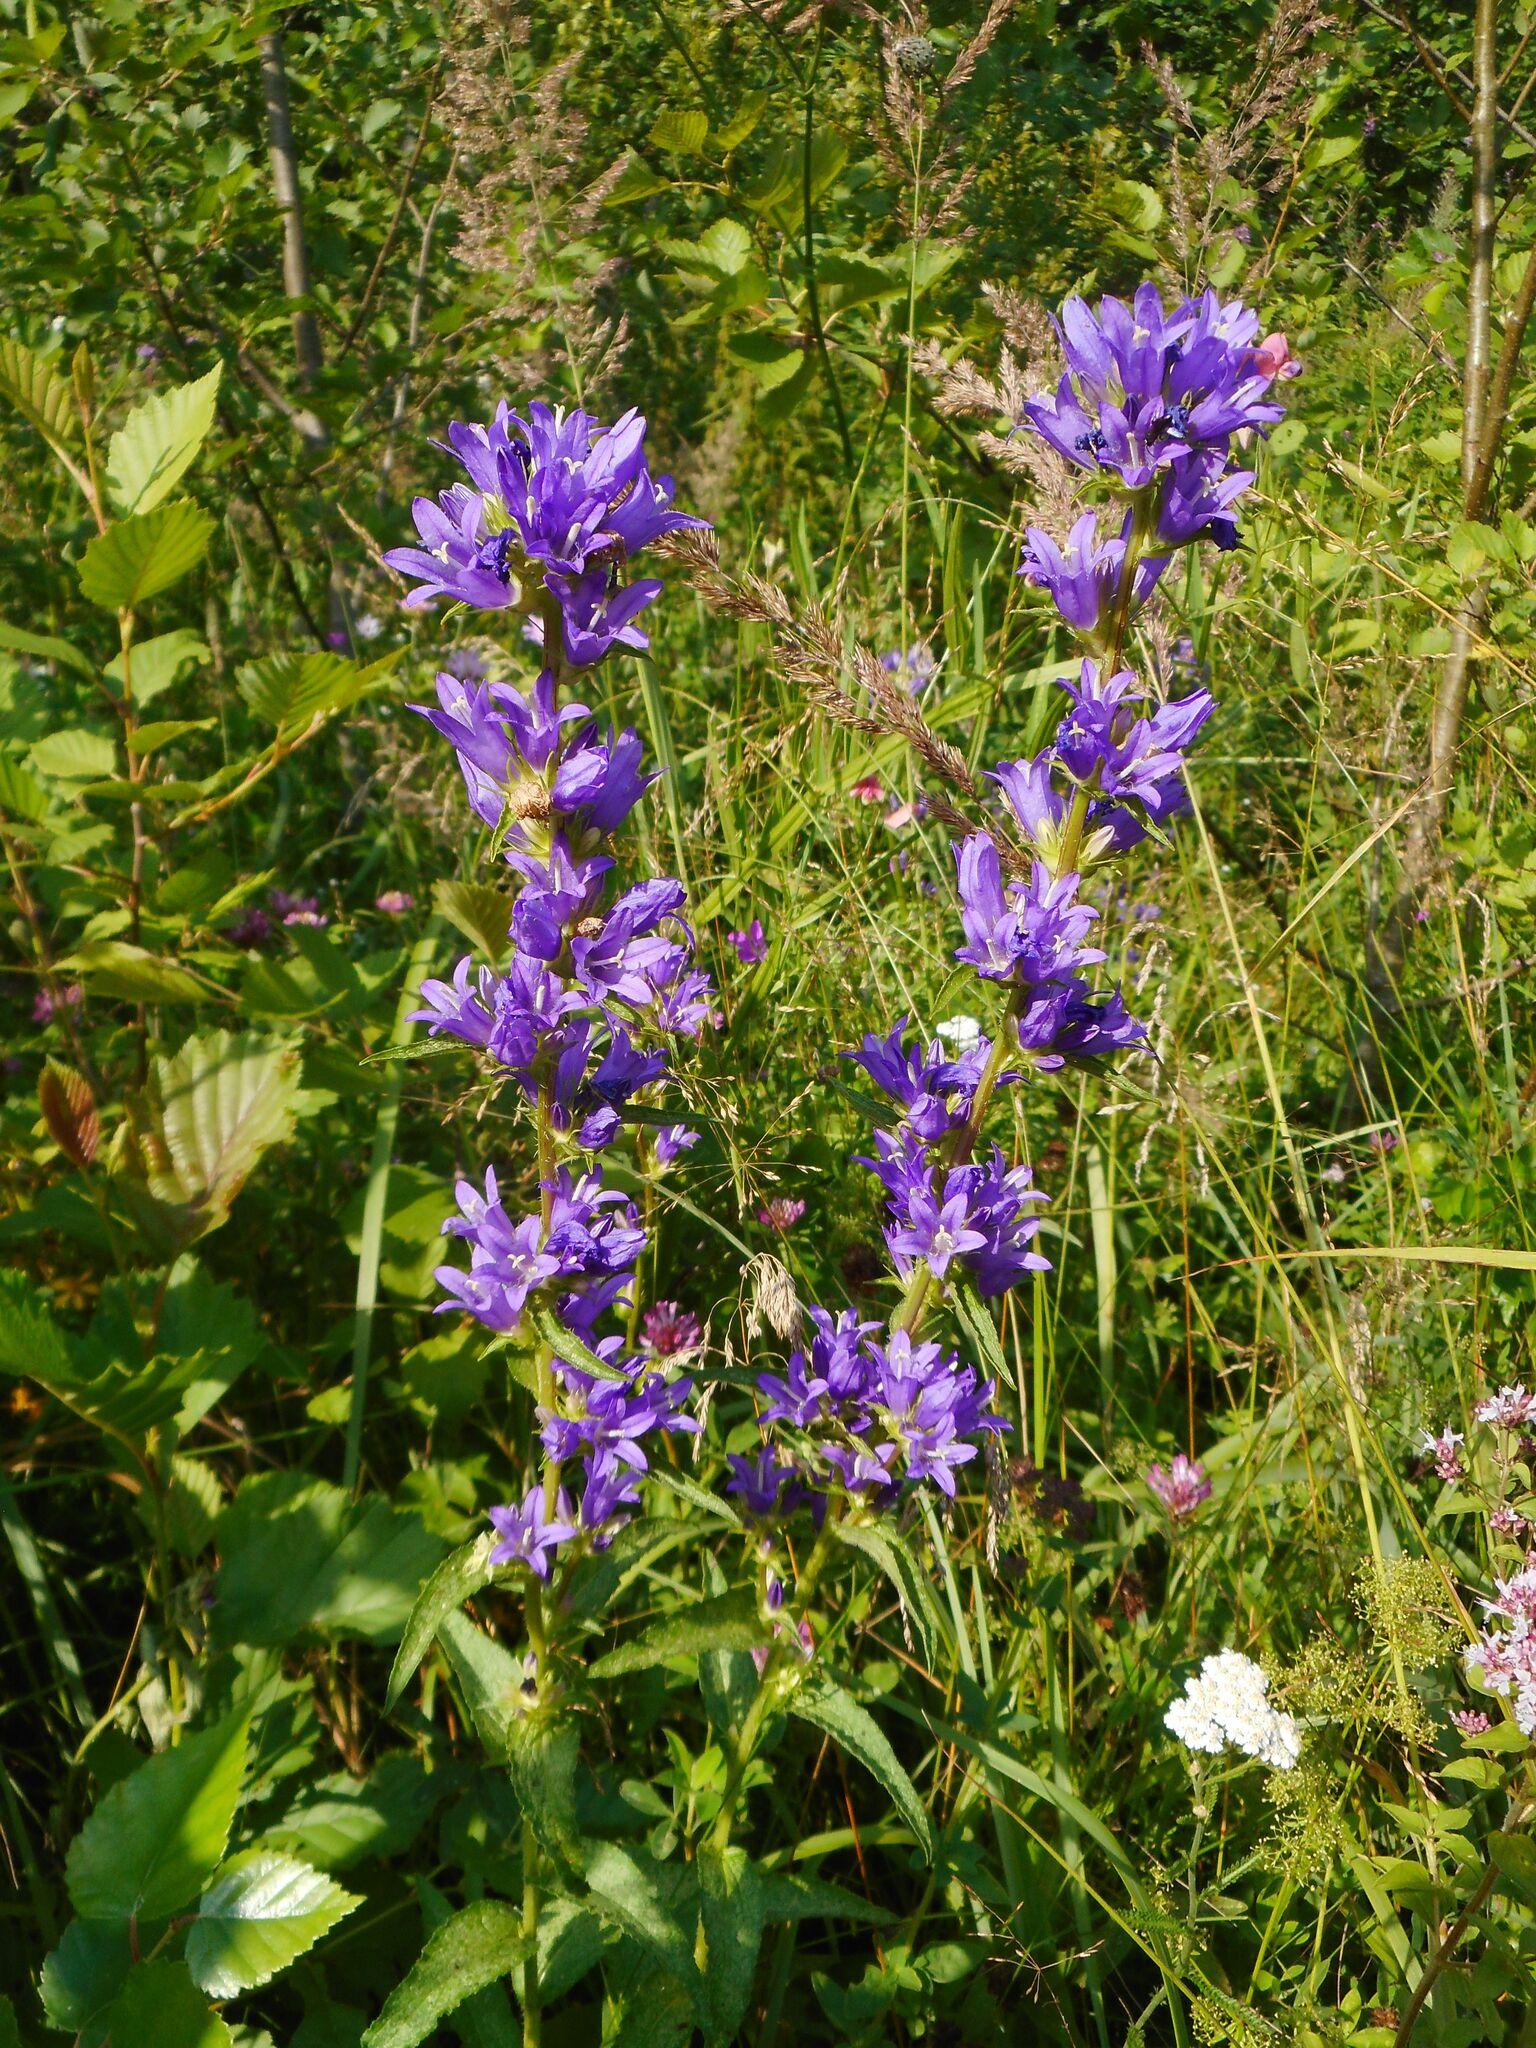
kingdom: Plantae
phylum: Tracheophyta
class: Magnoliopsida
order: Asterales
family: Campanulaceae
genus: Campanula
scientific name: Campanula glomerata
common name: Clustered bellflower
